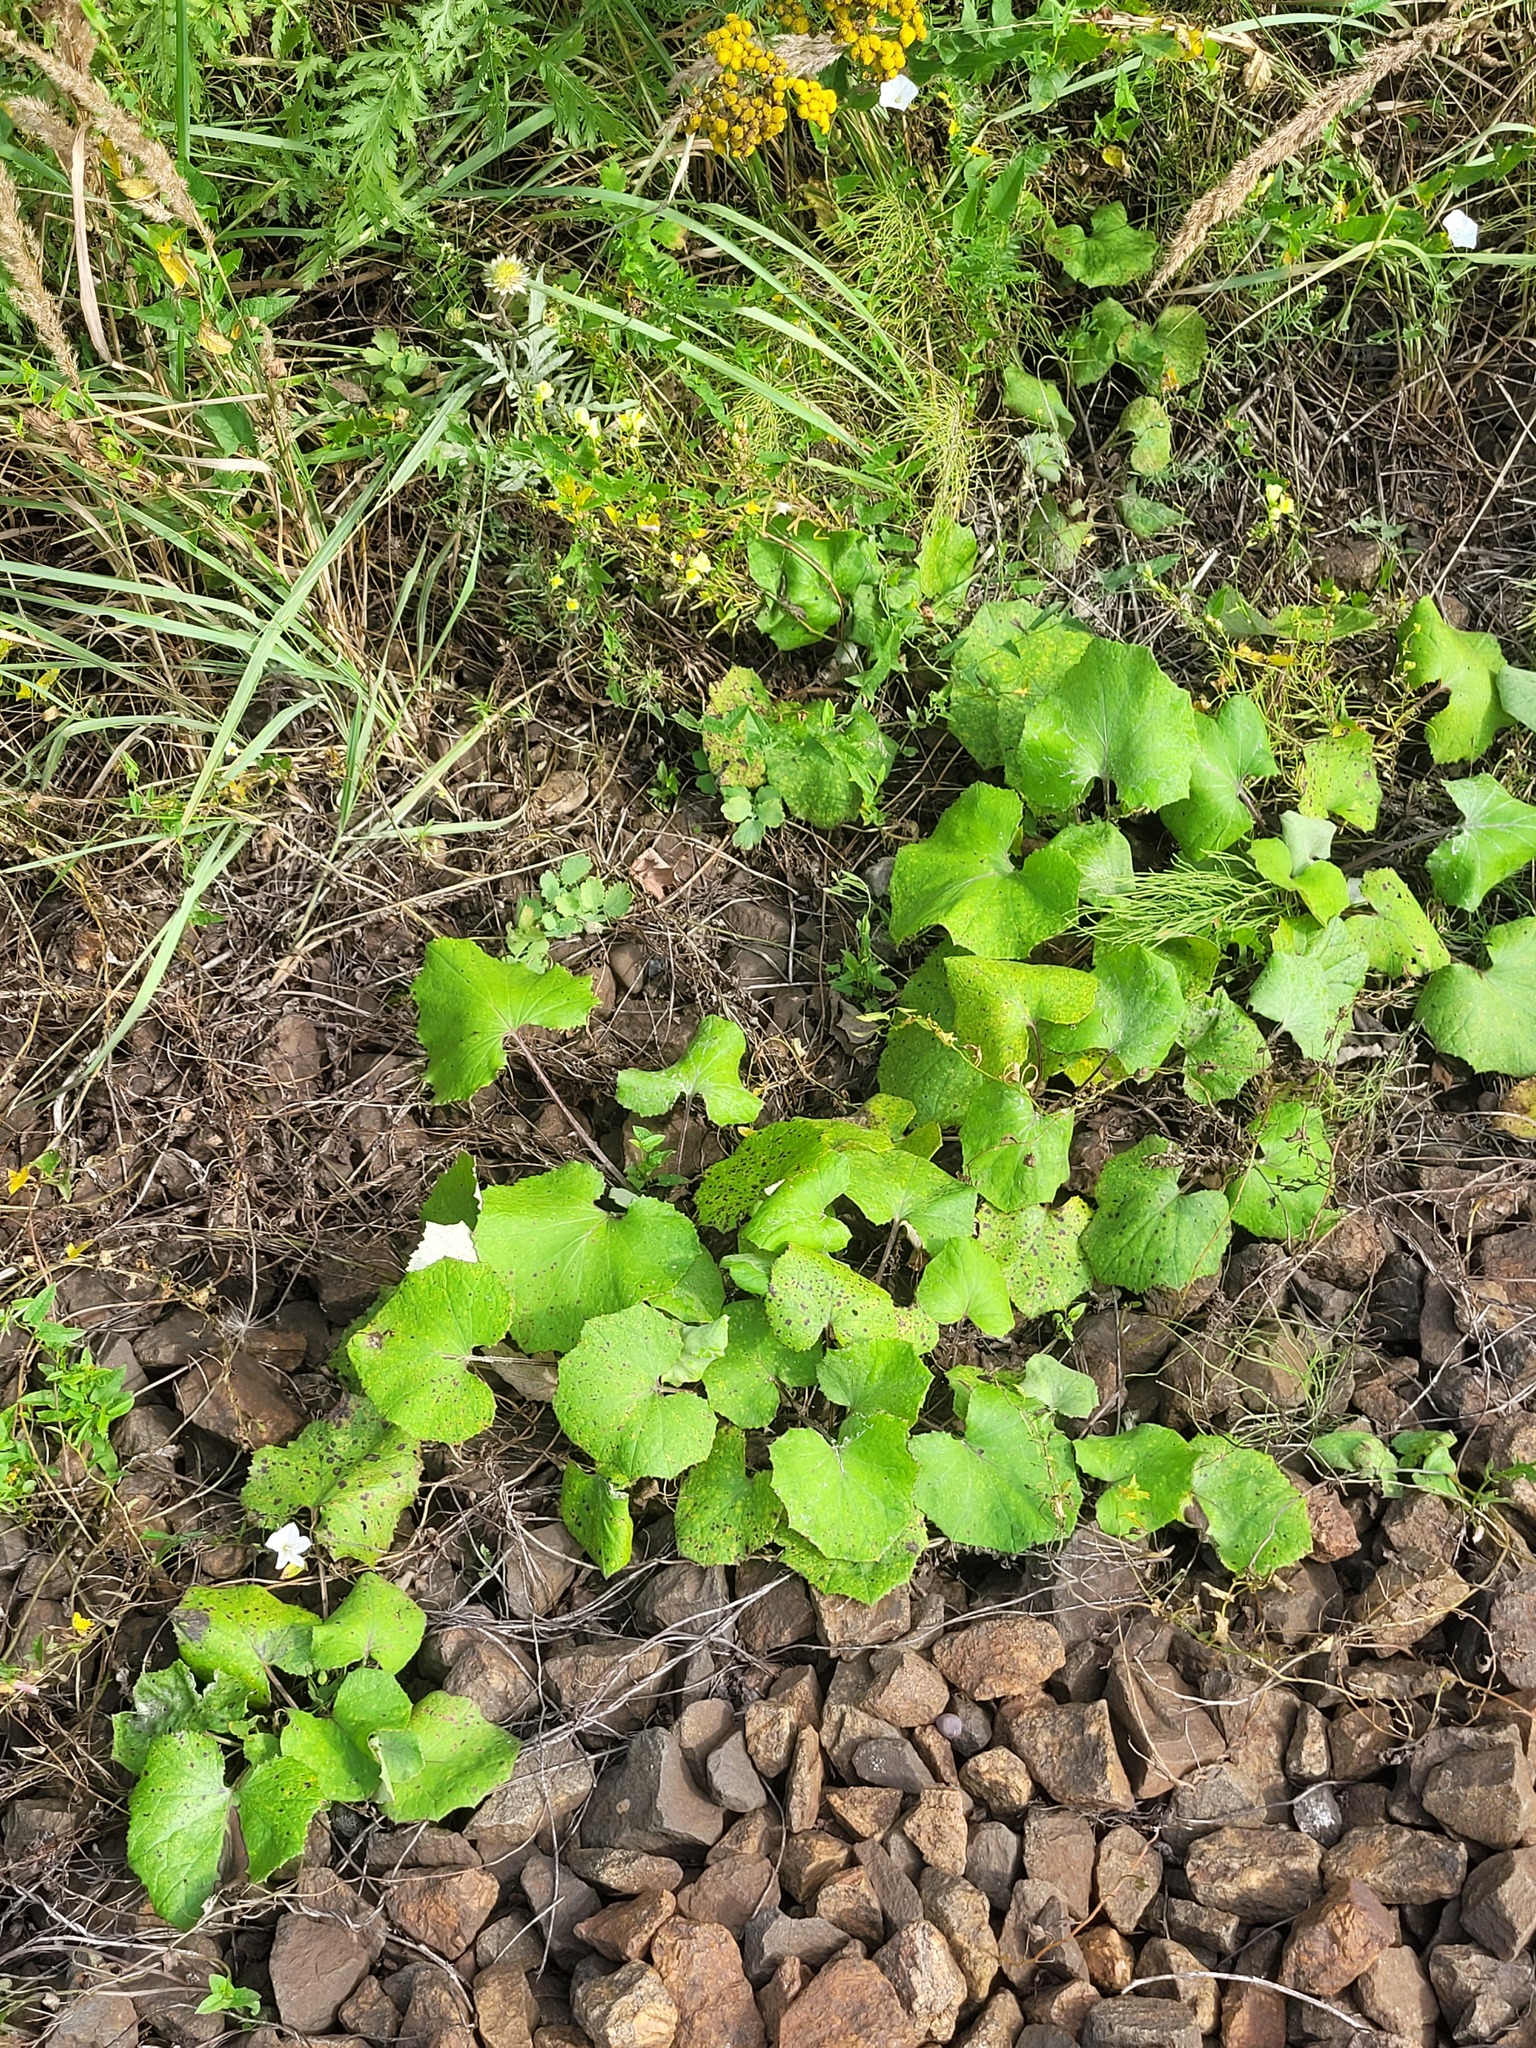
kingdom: Plantae
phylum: Tracheophyta
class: Magnoliopsida
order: Asterales
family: Asteraceae
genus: Tussilago
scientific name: Tussilago farfara
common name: Coltsfoot
